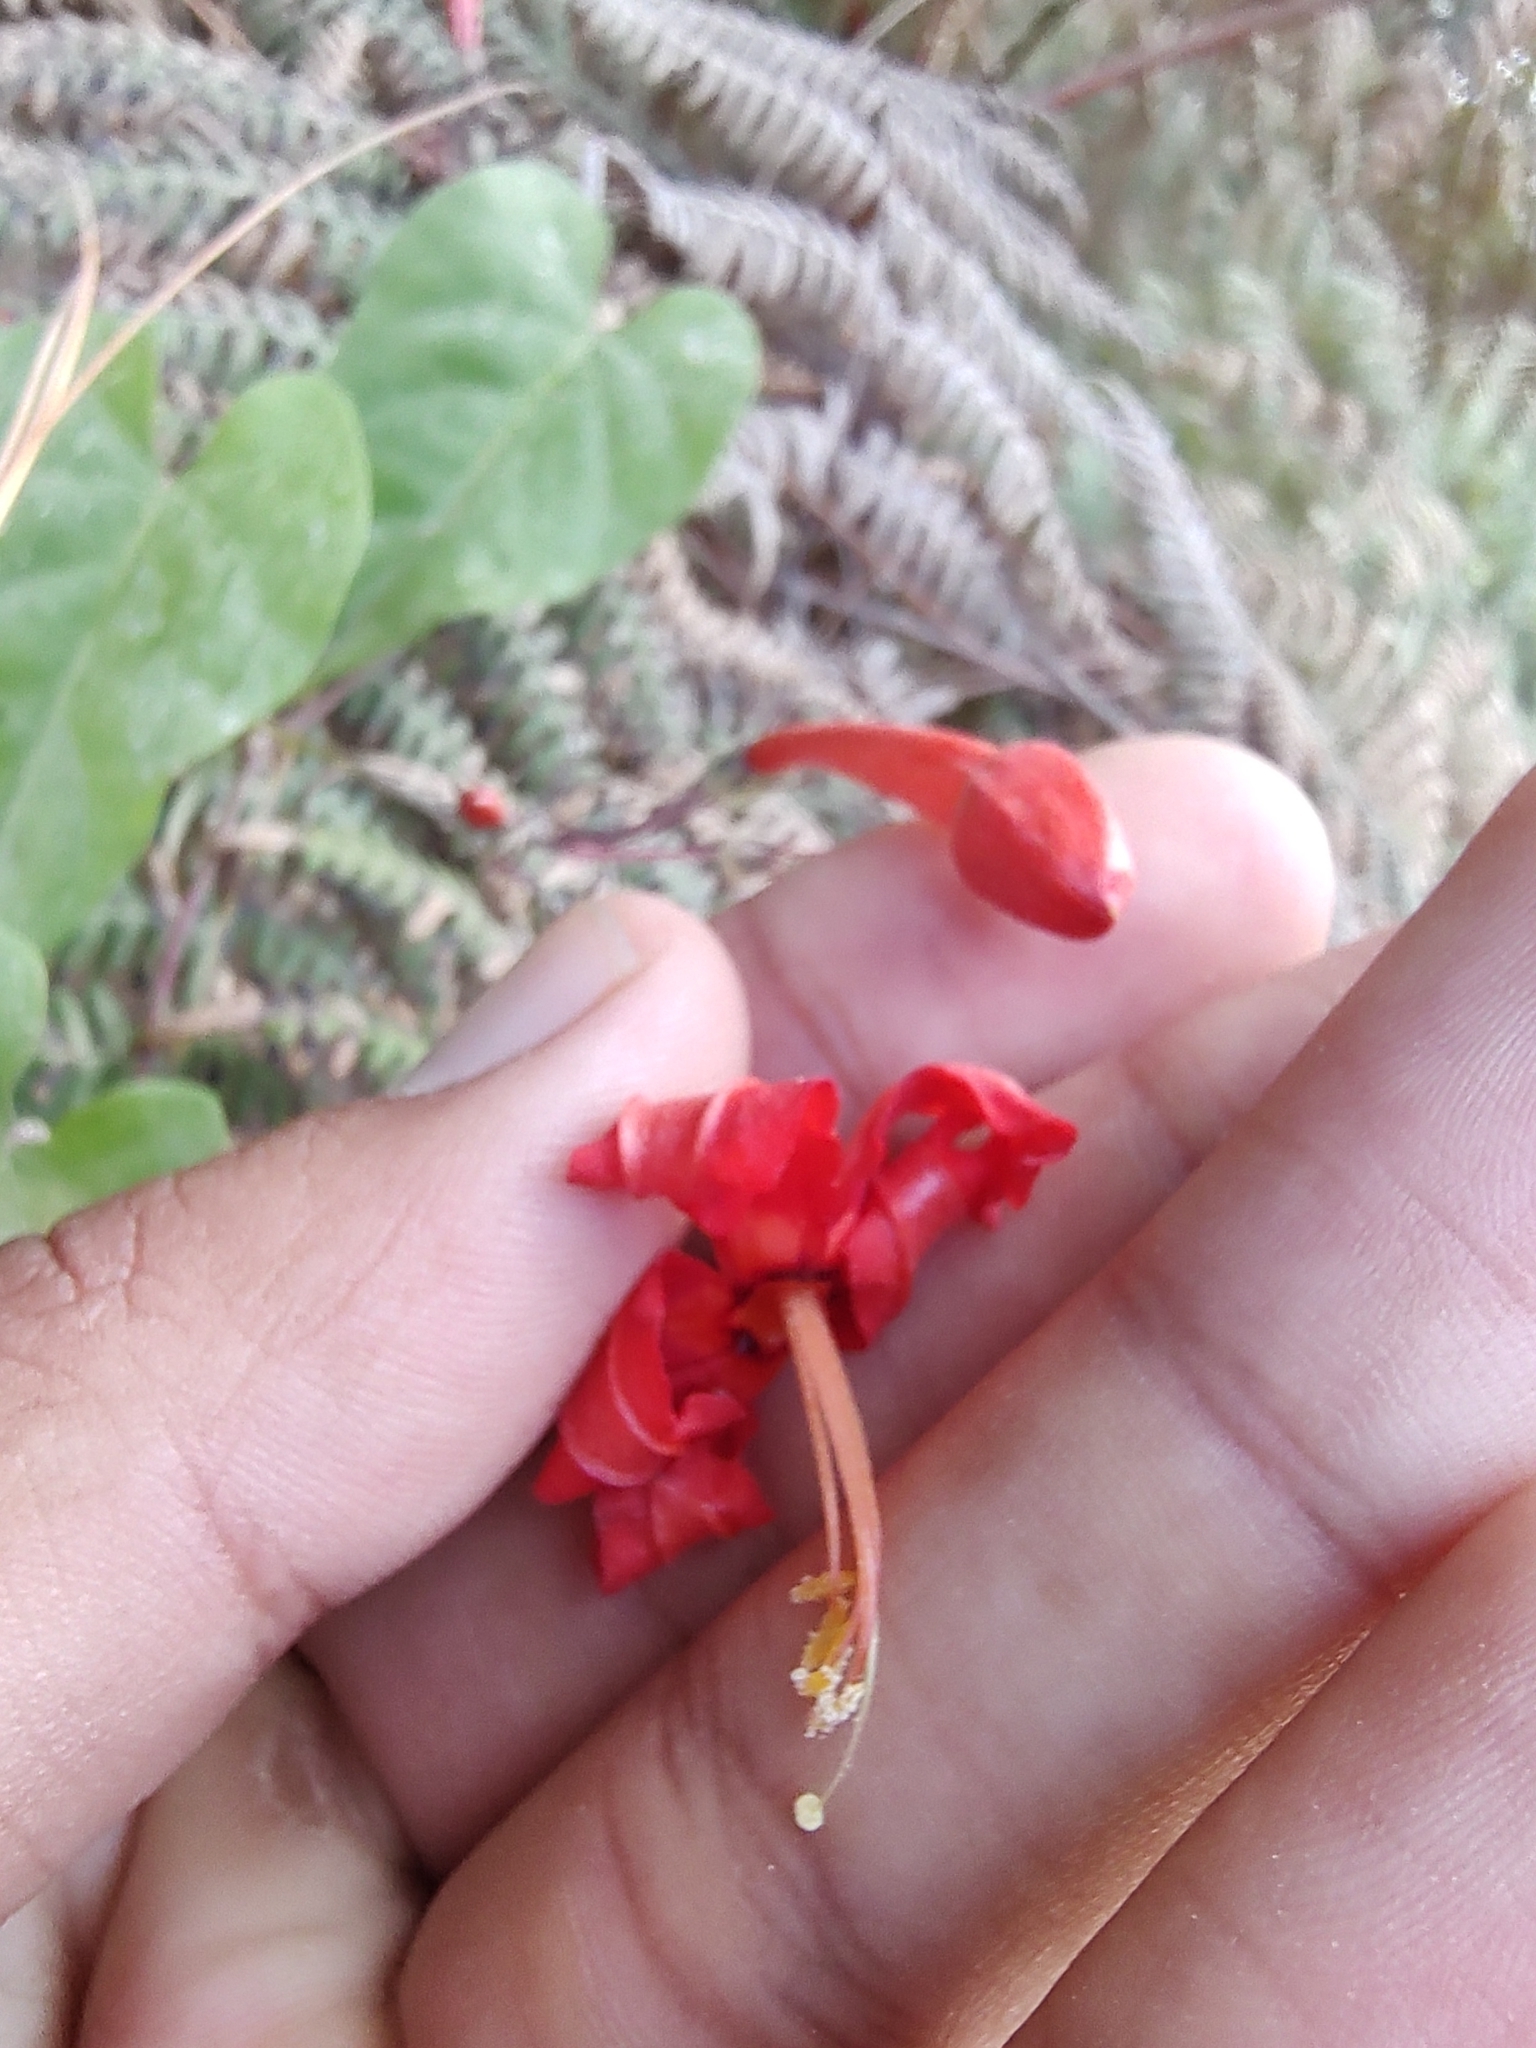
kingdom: Plantae
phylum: Tracheophyta
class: Magnoliopsida
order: Solanales
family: Convolvulaceae
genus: Ipomoea
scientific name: Ipomoea spectata
